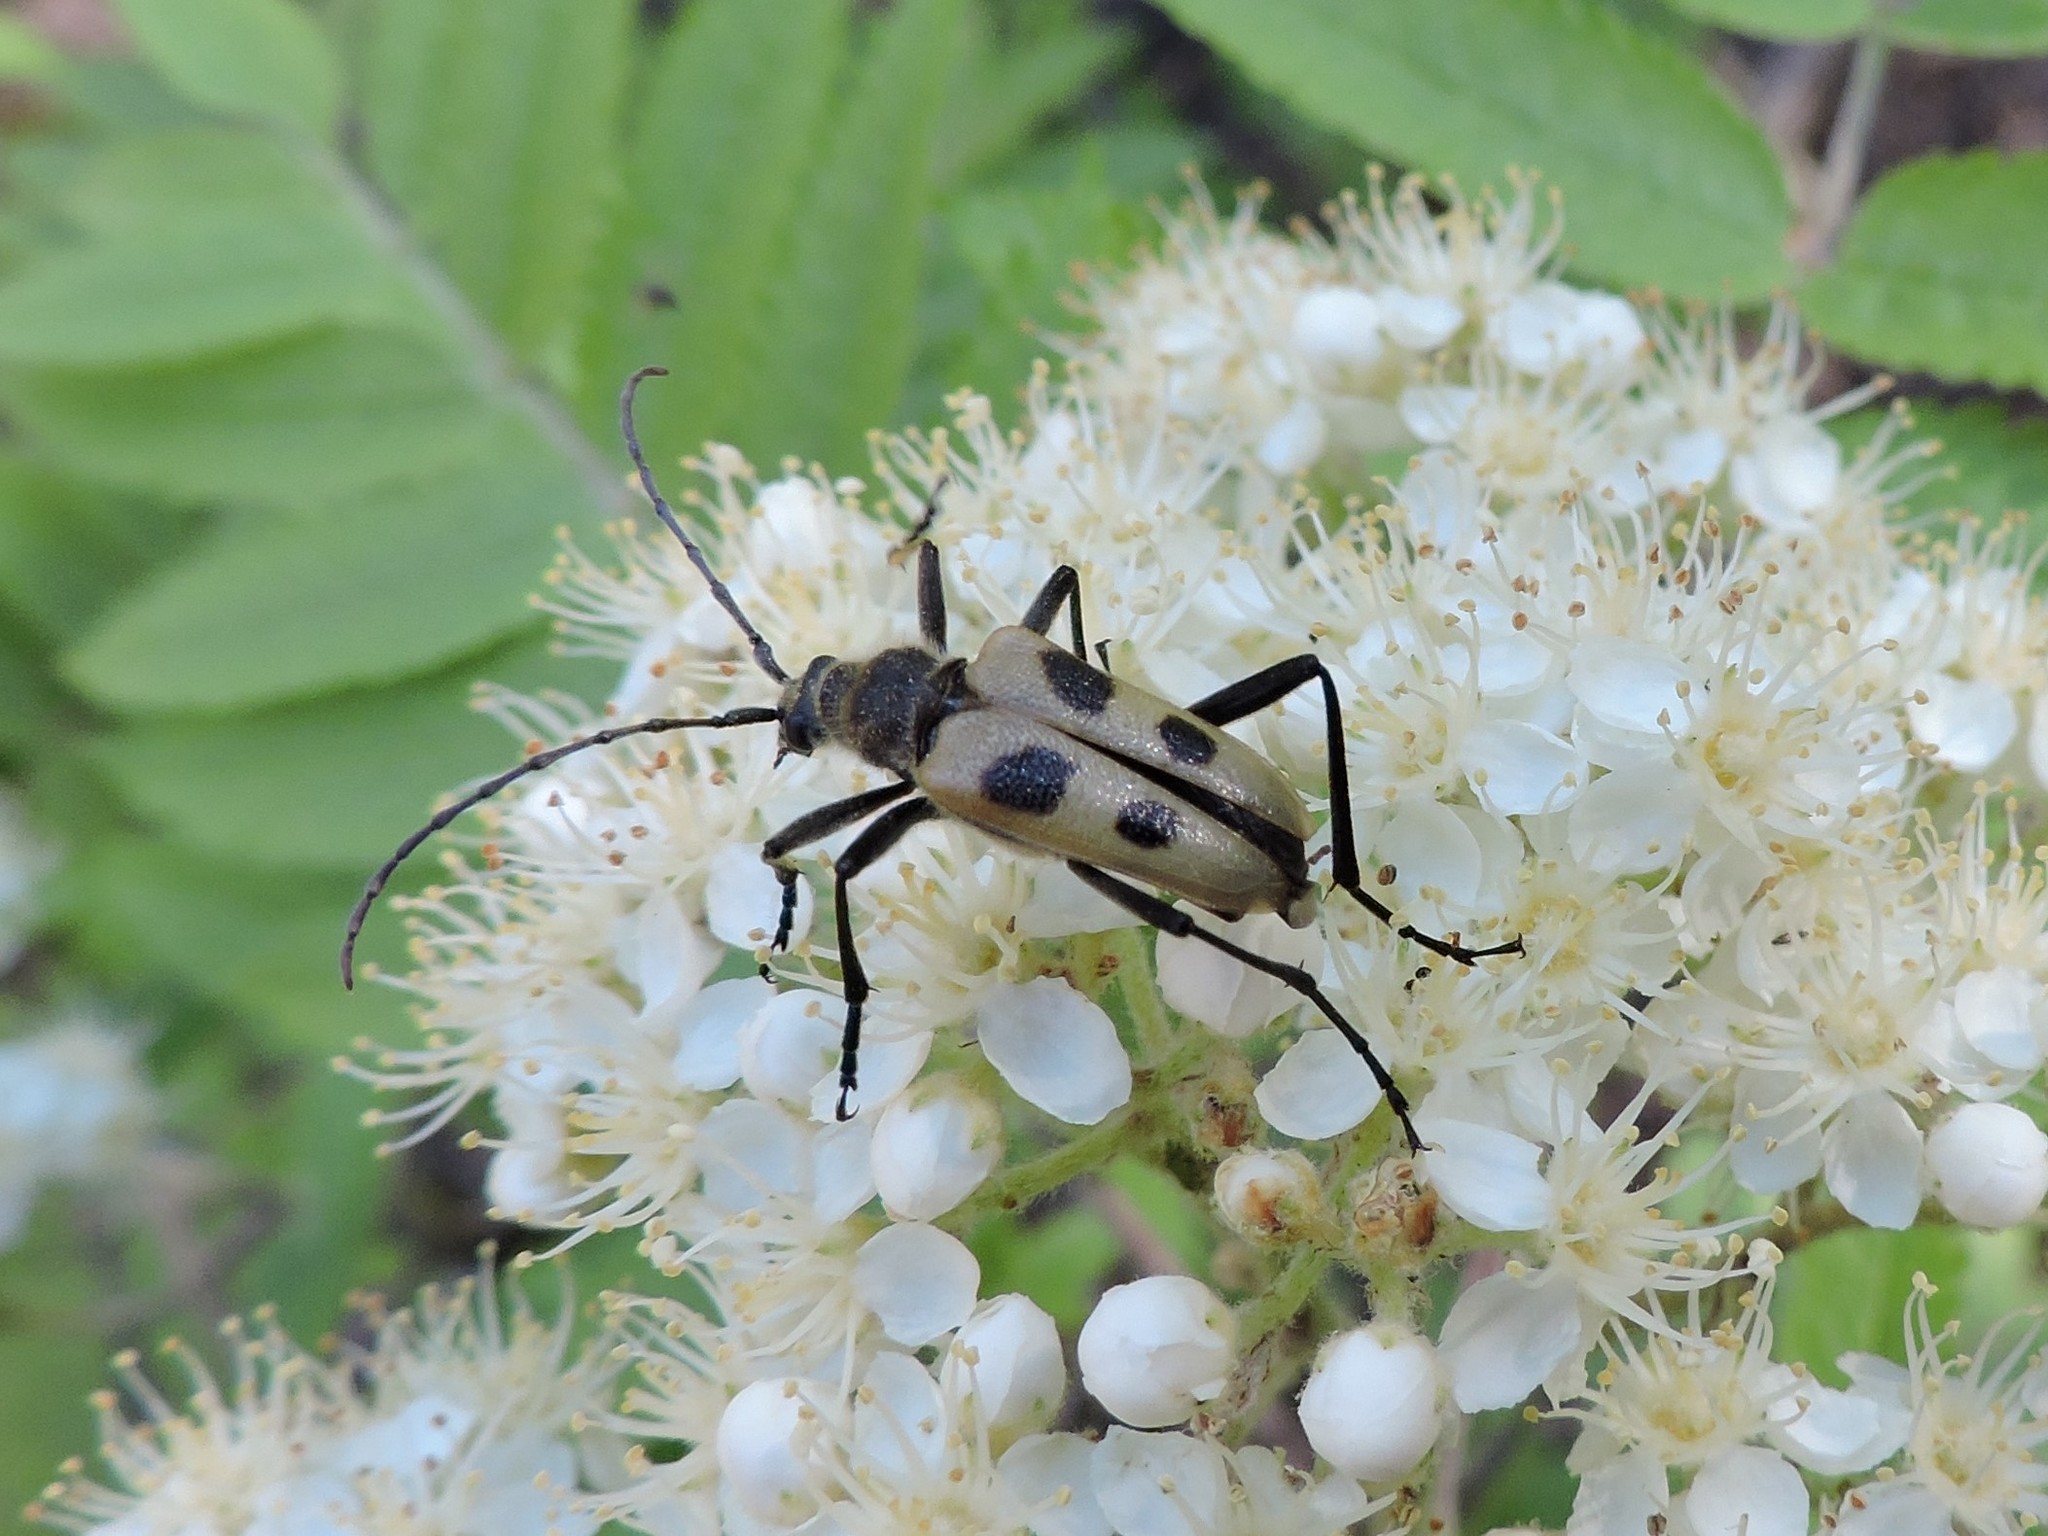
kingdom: Animalia
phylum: Arthropoda
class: Insecta
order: Coleoptera
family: Cerambycidae
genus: Pachyta
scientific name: Pachyta quadrimaculata
